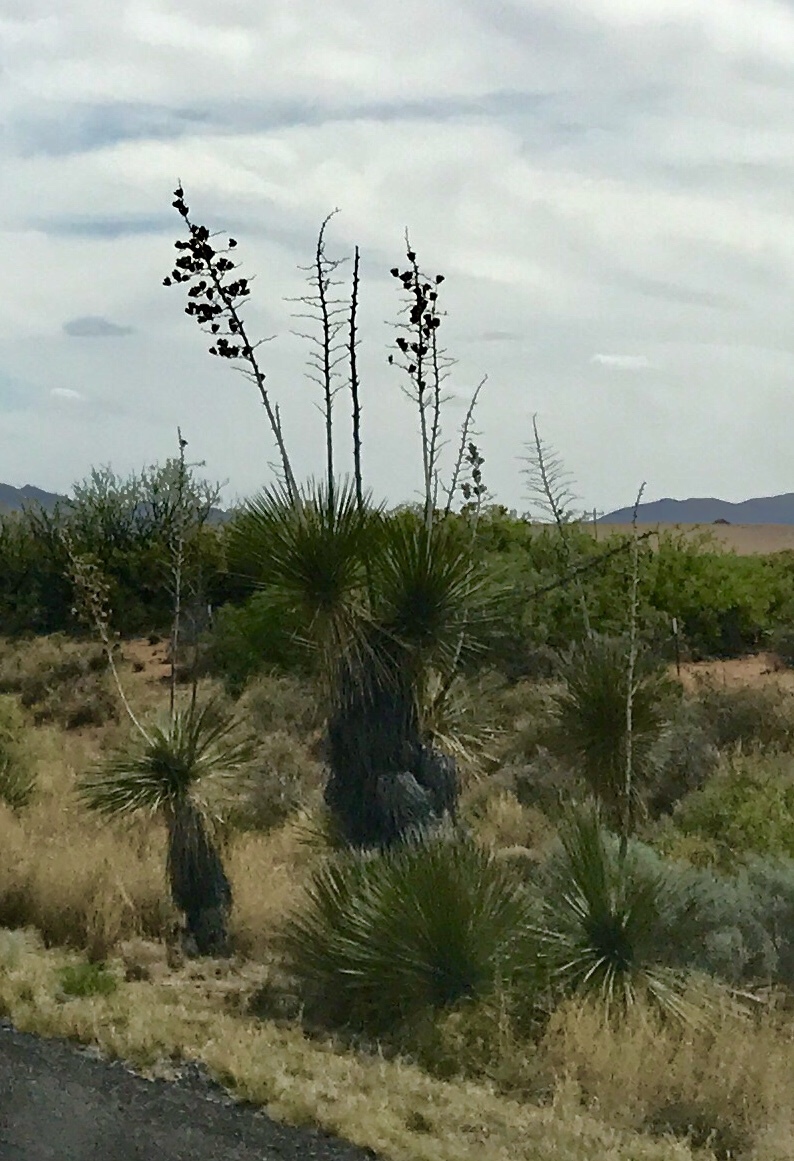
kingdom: Plantae
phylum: Tracheophyta
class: Liliopsida
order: Asparagales
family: Asparagaceae
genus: Yucca
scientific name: Yucca elata
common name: Palmella
